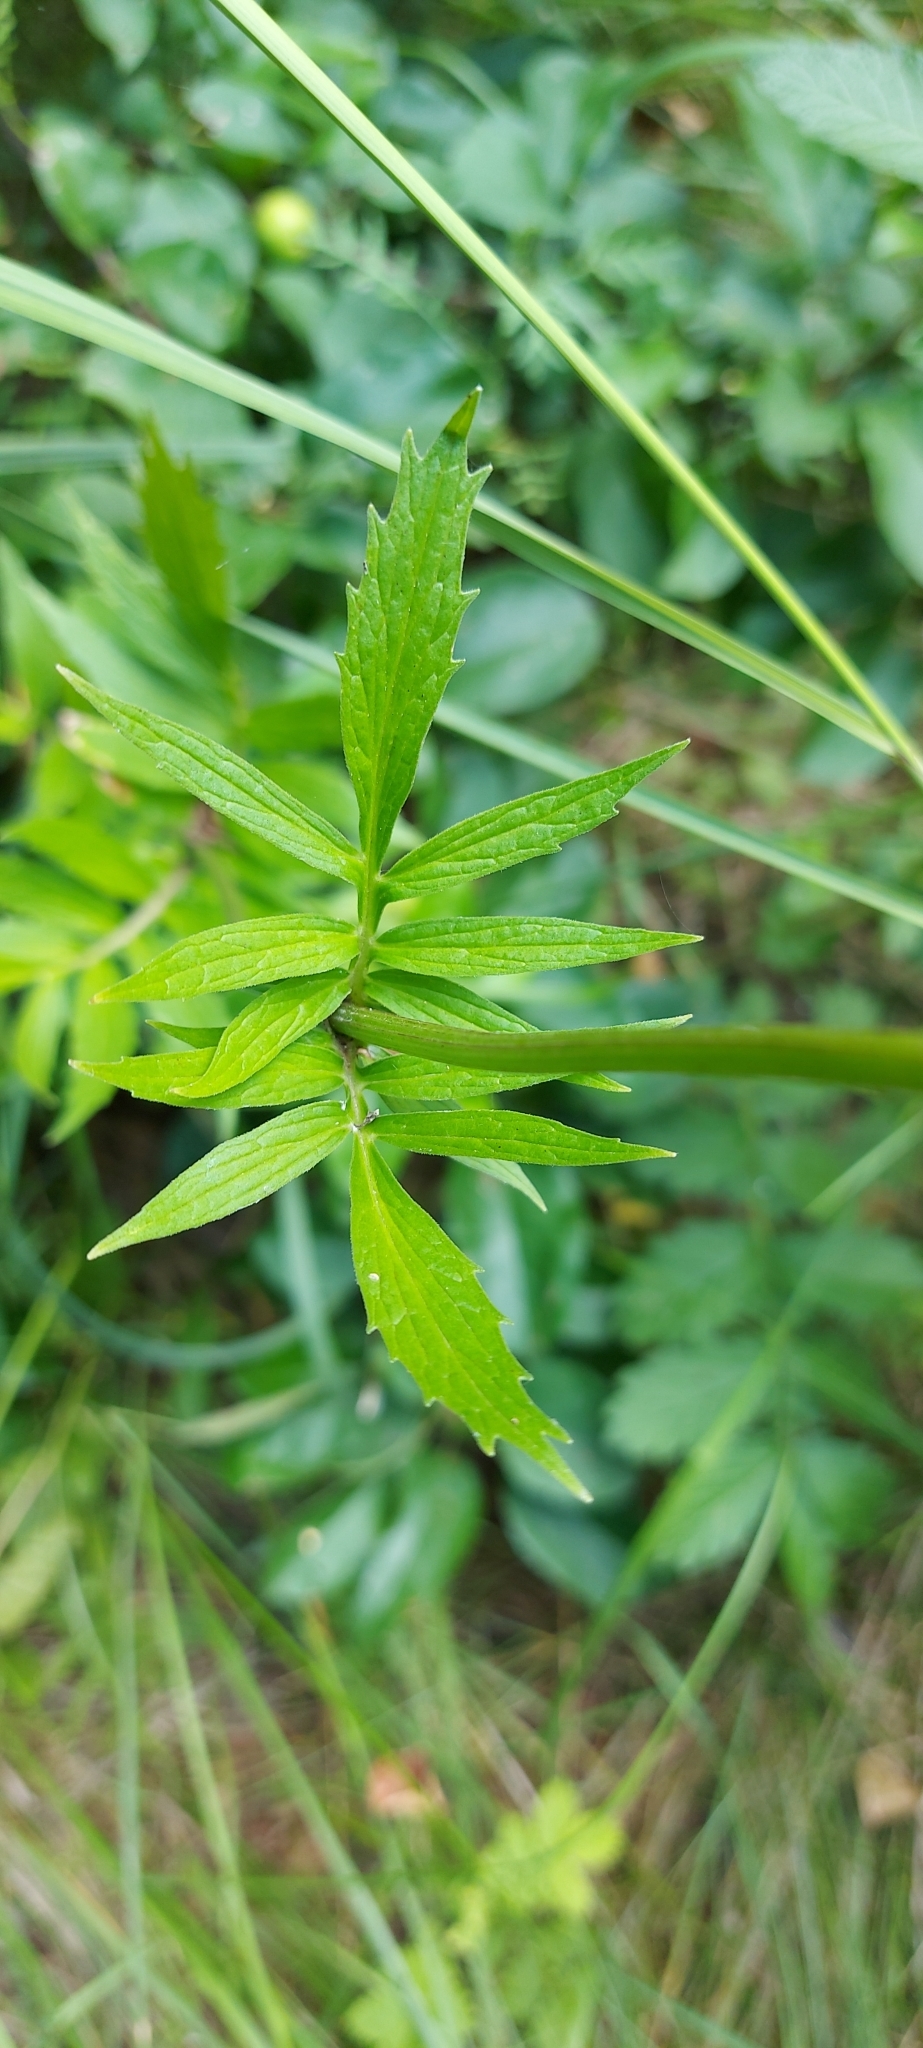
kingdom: Plantae
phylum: Tracheophyta
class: Magnoliopsida
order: Dipsacales
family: Caprifoliaceae
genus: Valeriana
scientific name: Valeriana officinalis
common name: Common valerian
